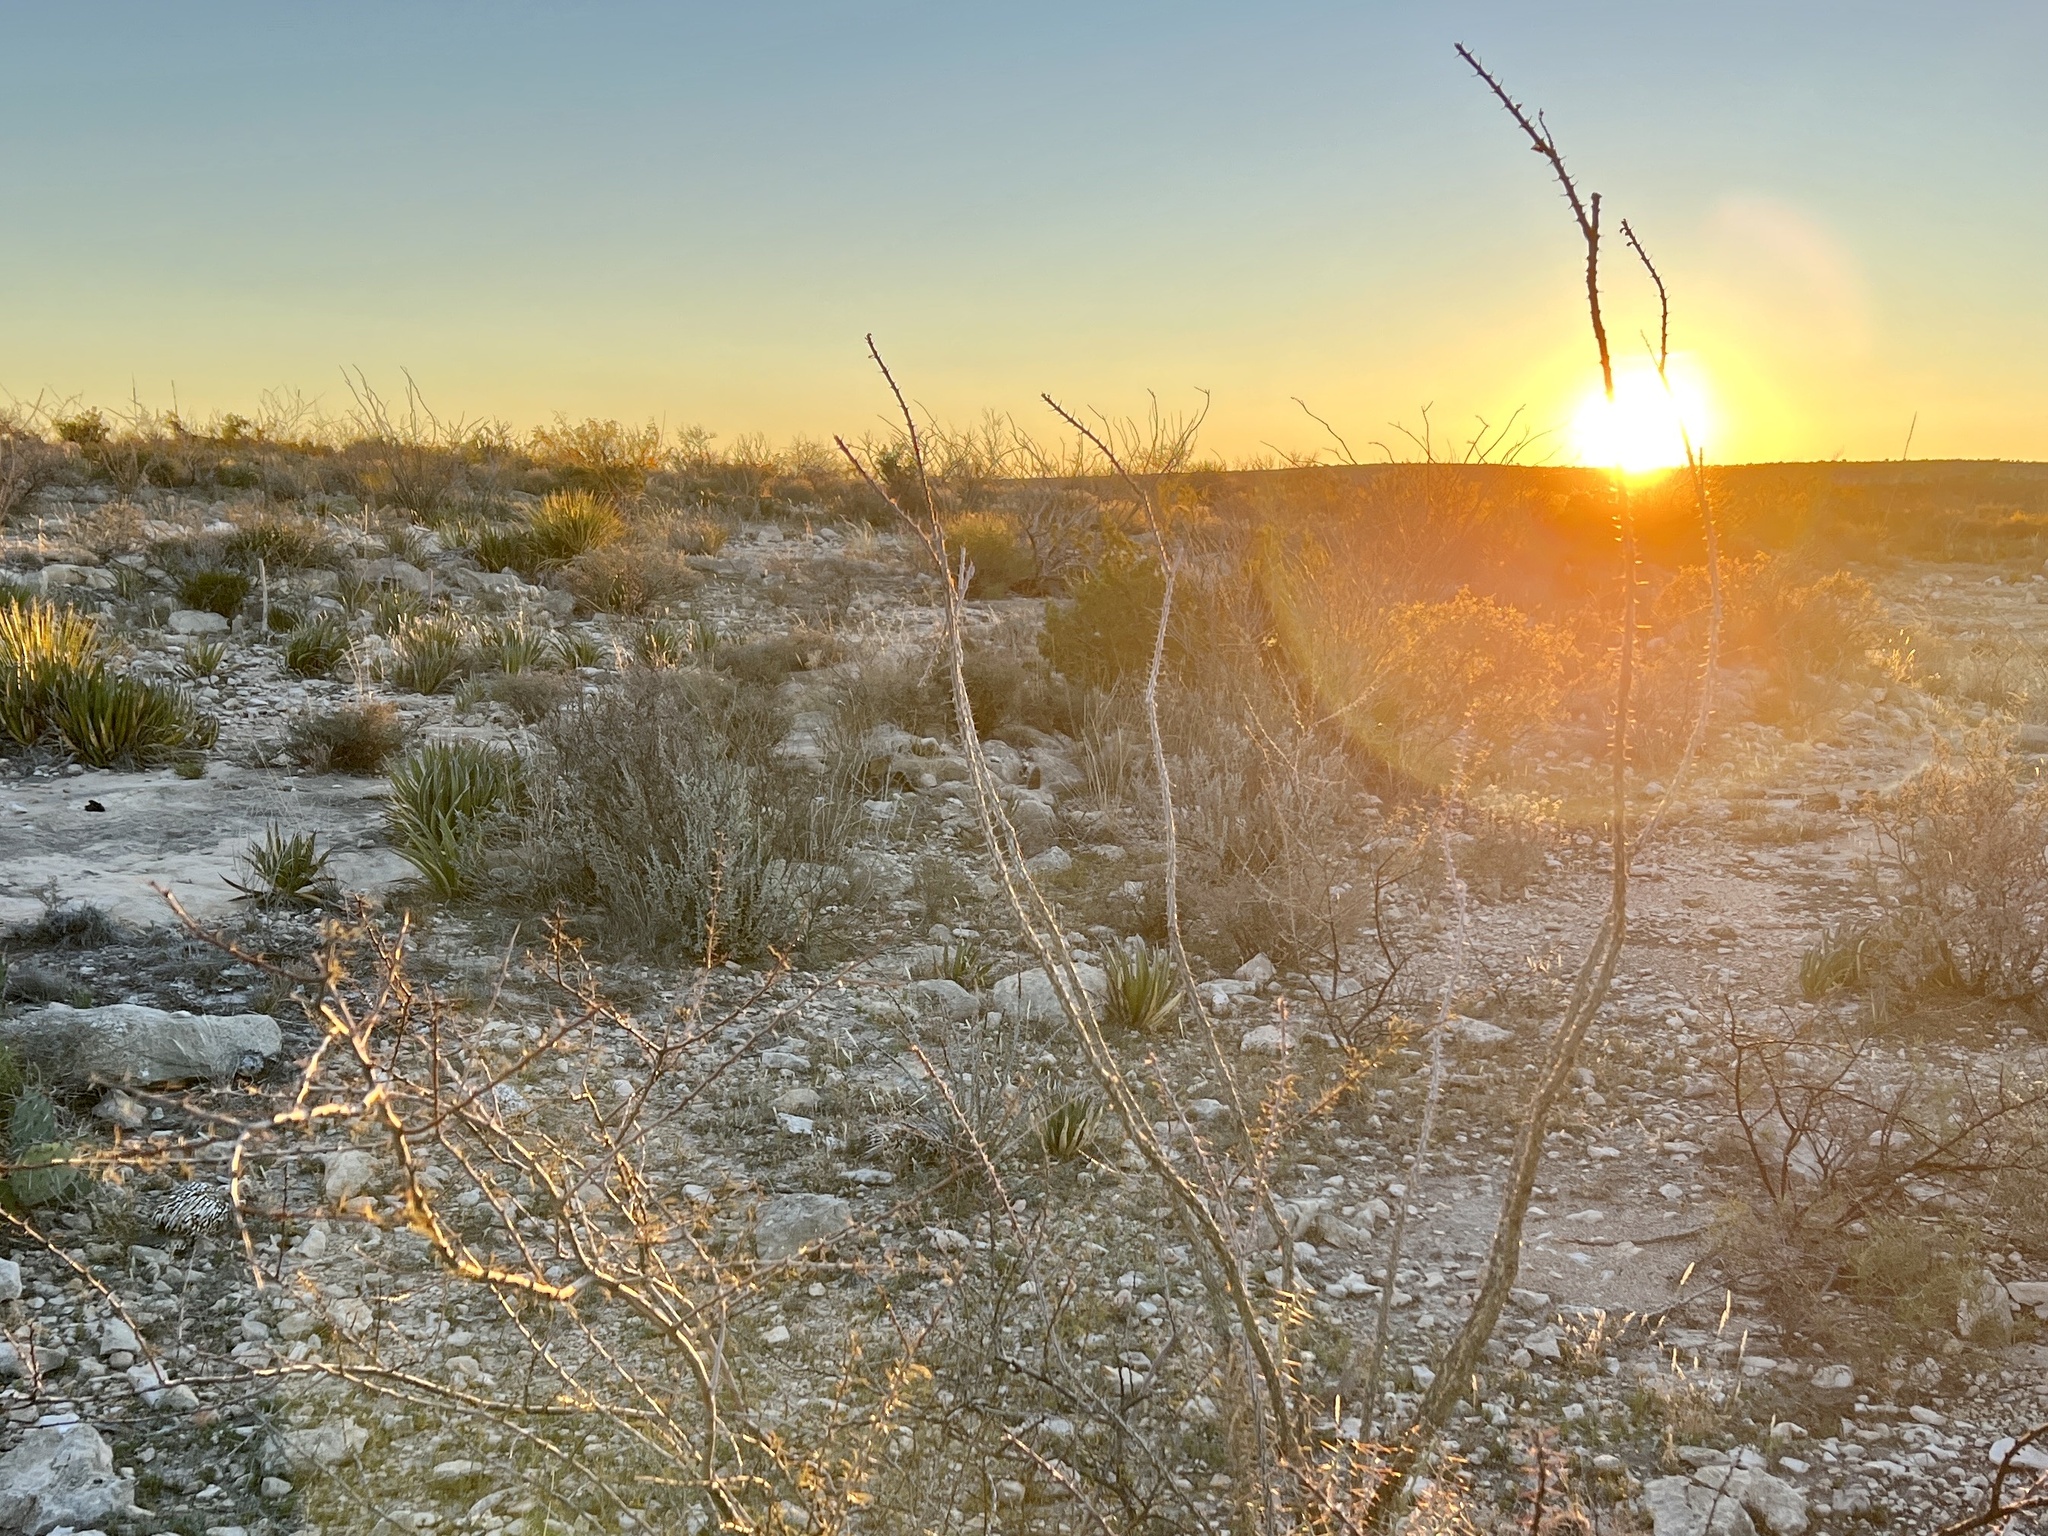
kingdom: Plantae
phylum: Tracheophyta
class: Magnoliopsida
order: Ericales
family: Fouquieriaceae
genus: Fouquieria
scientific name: Fouquieria splendens
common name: Vine-cactus
